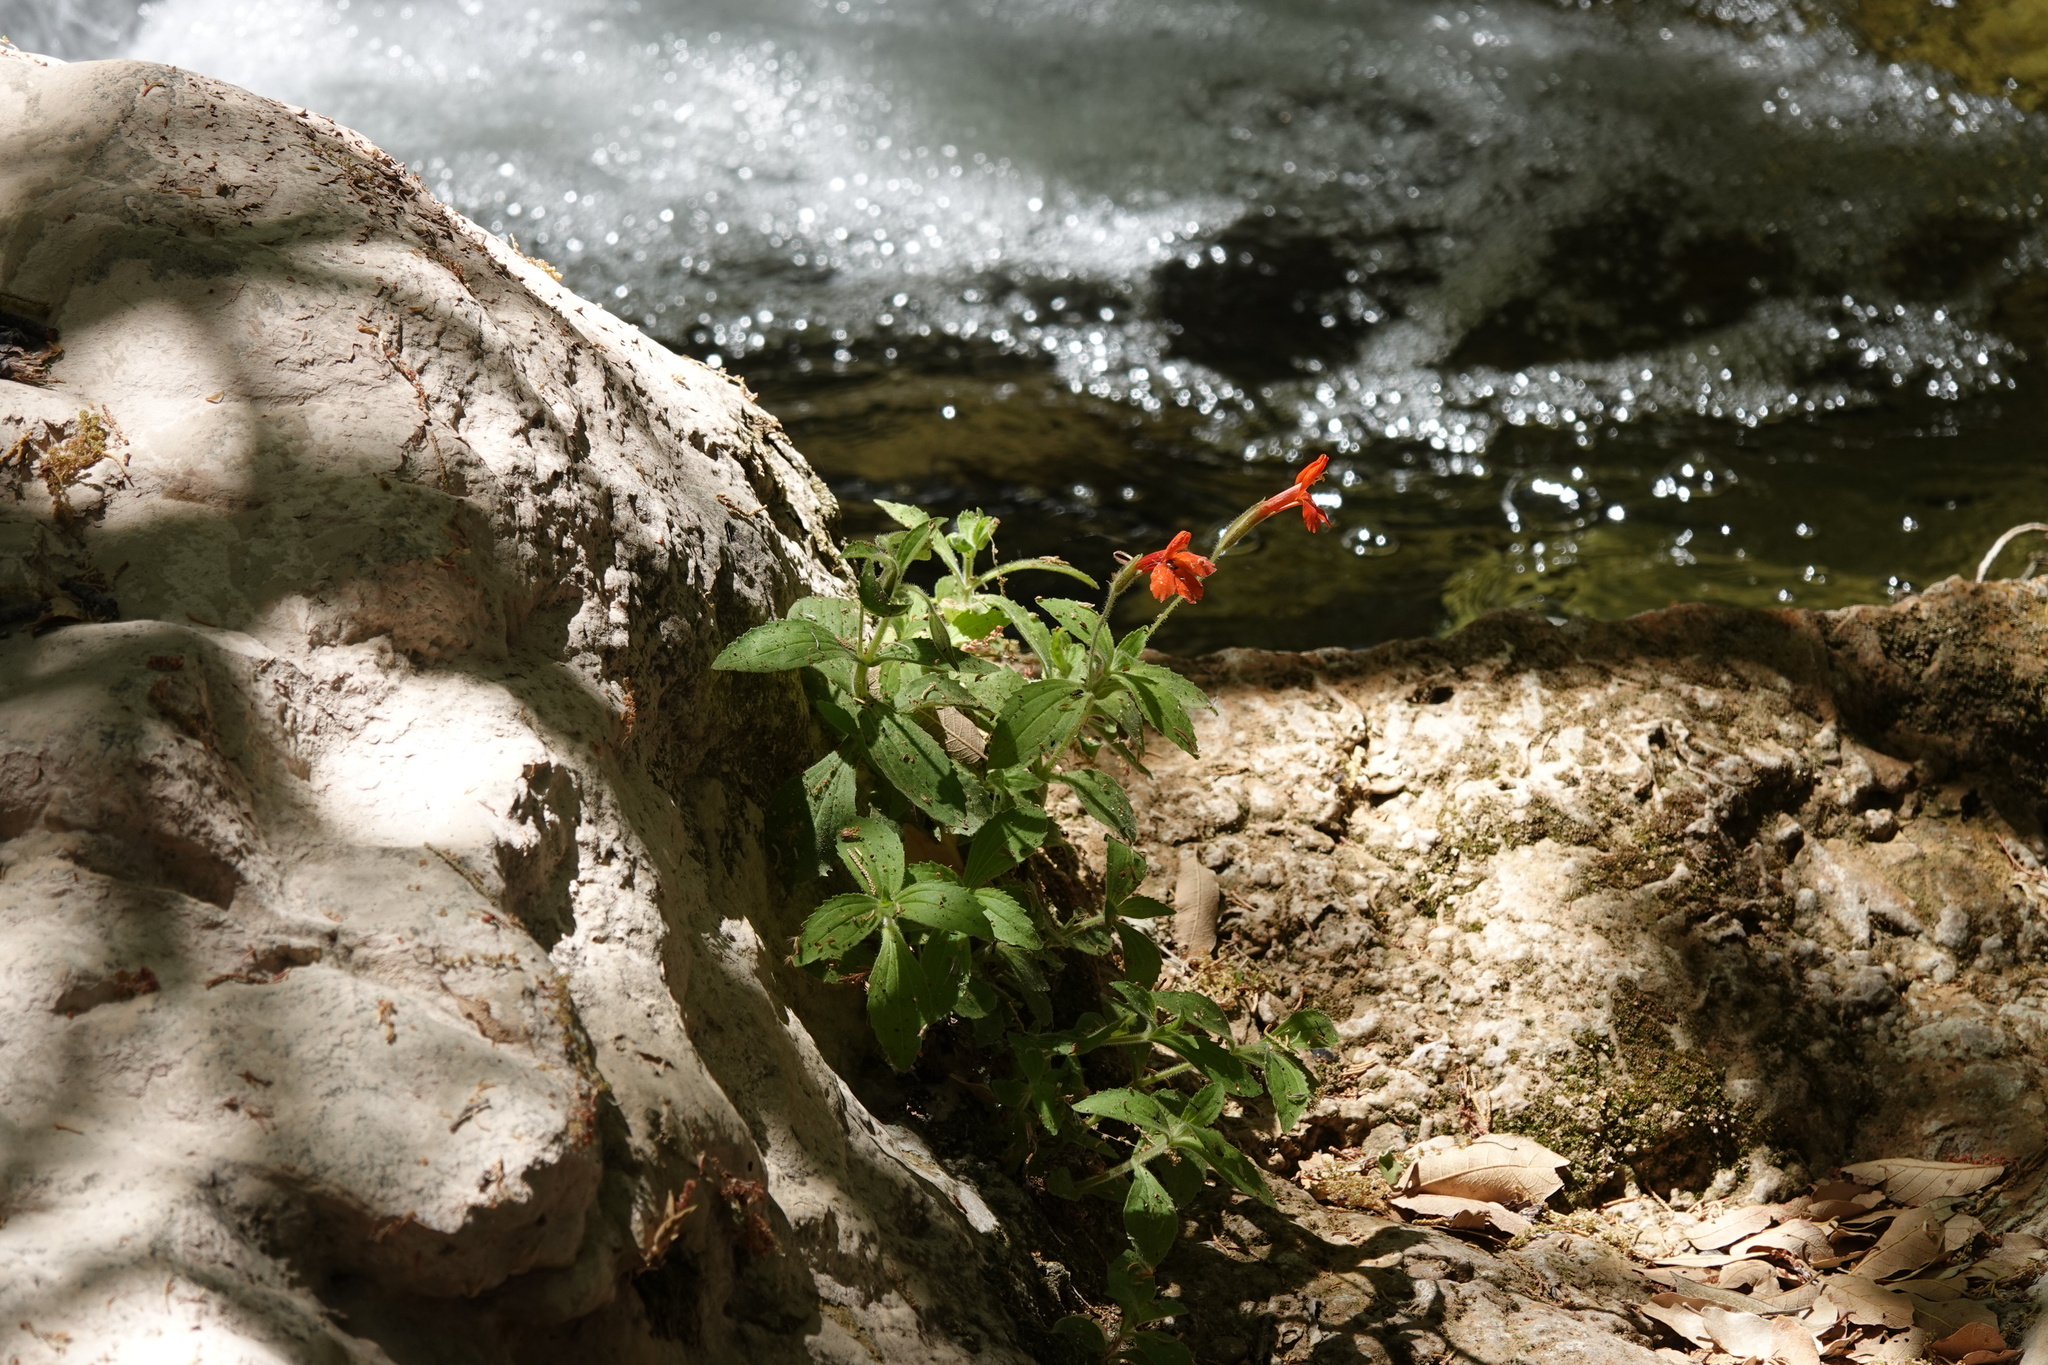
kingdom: Plantae
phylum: Tracheophyta
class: Magnoliopsida
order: Lamiales
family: Phrymaceae
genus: Erythranthe
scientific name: Erythranthe verbenacea
